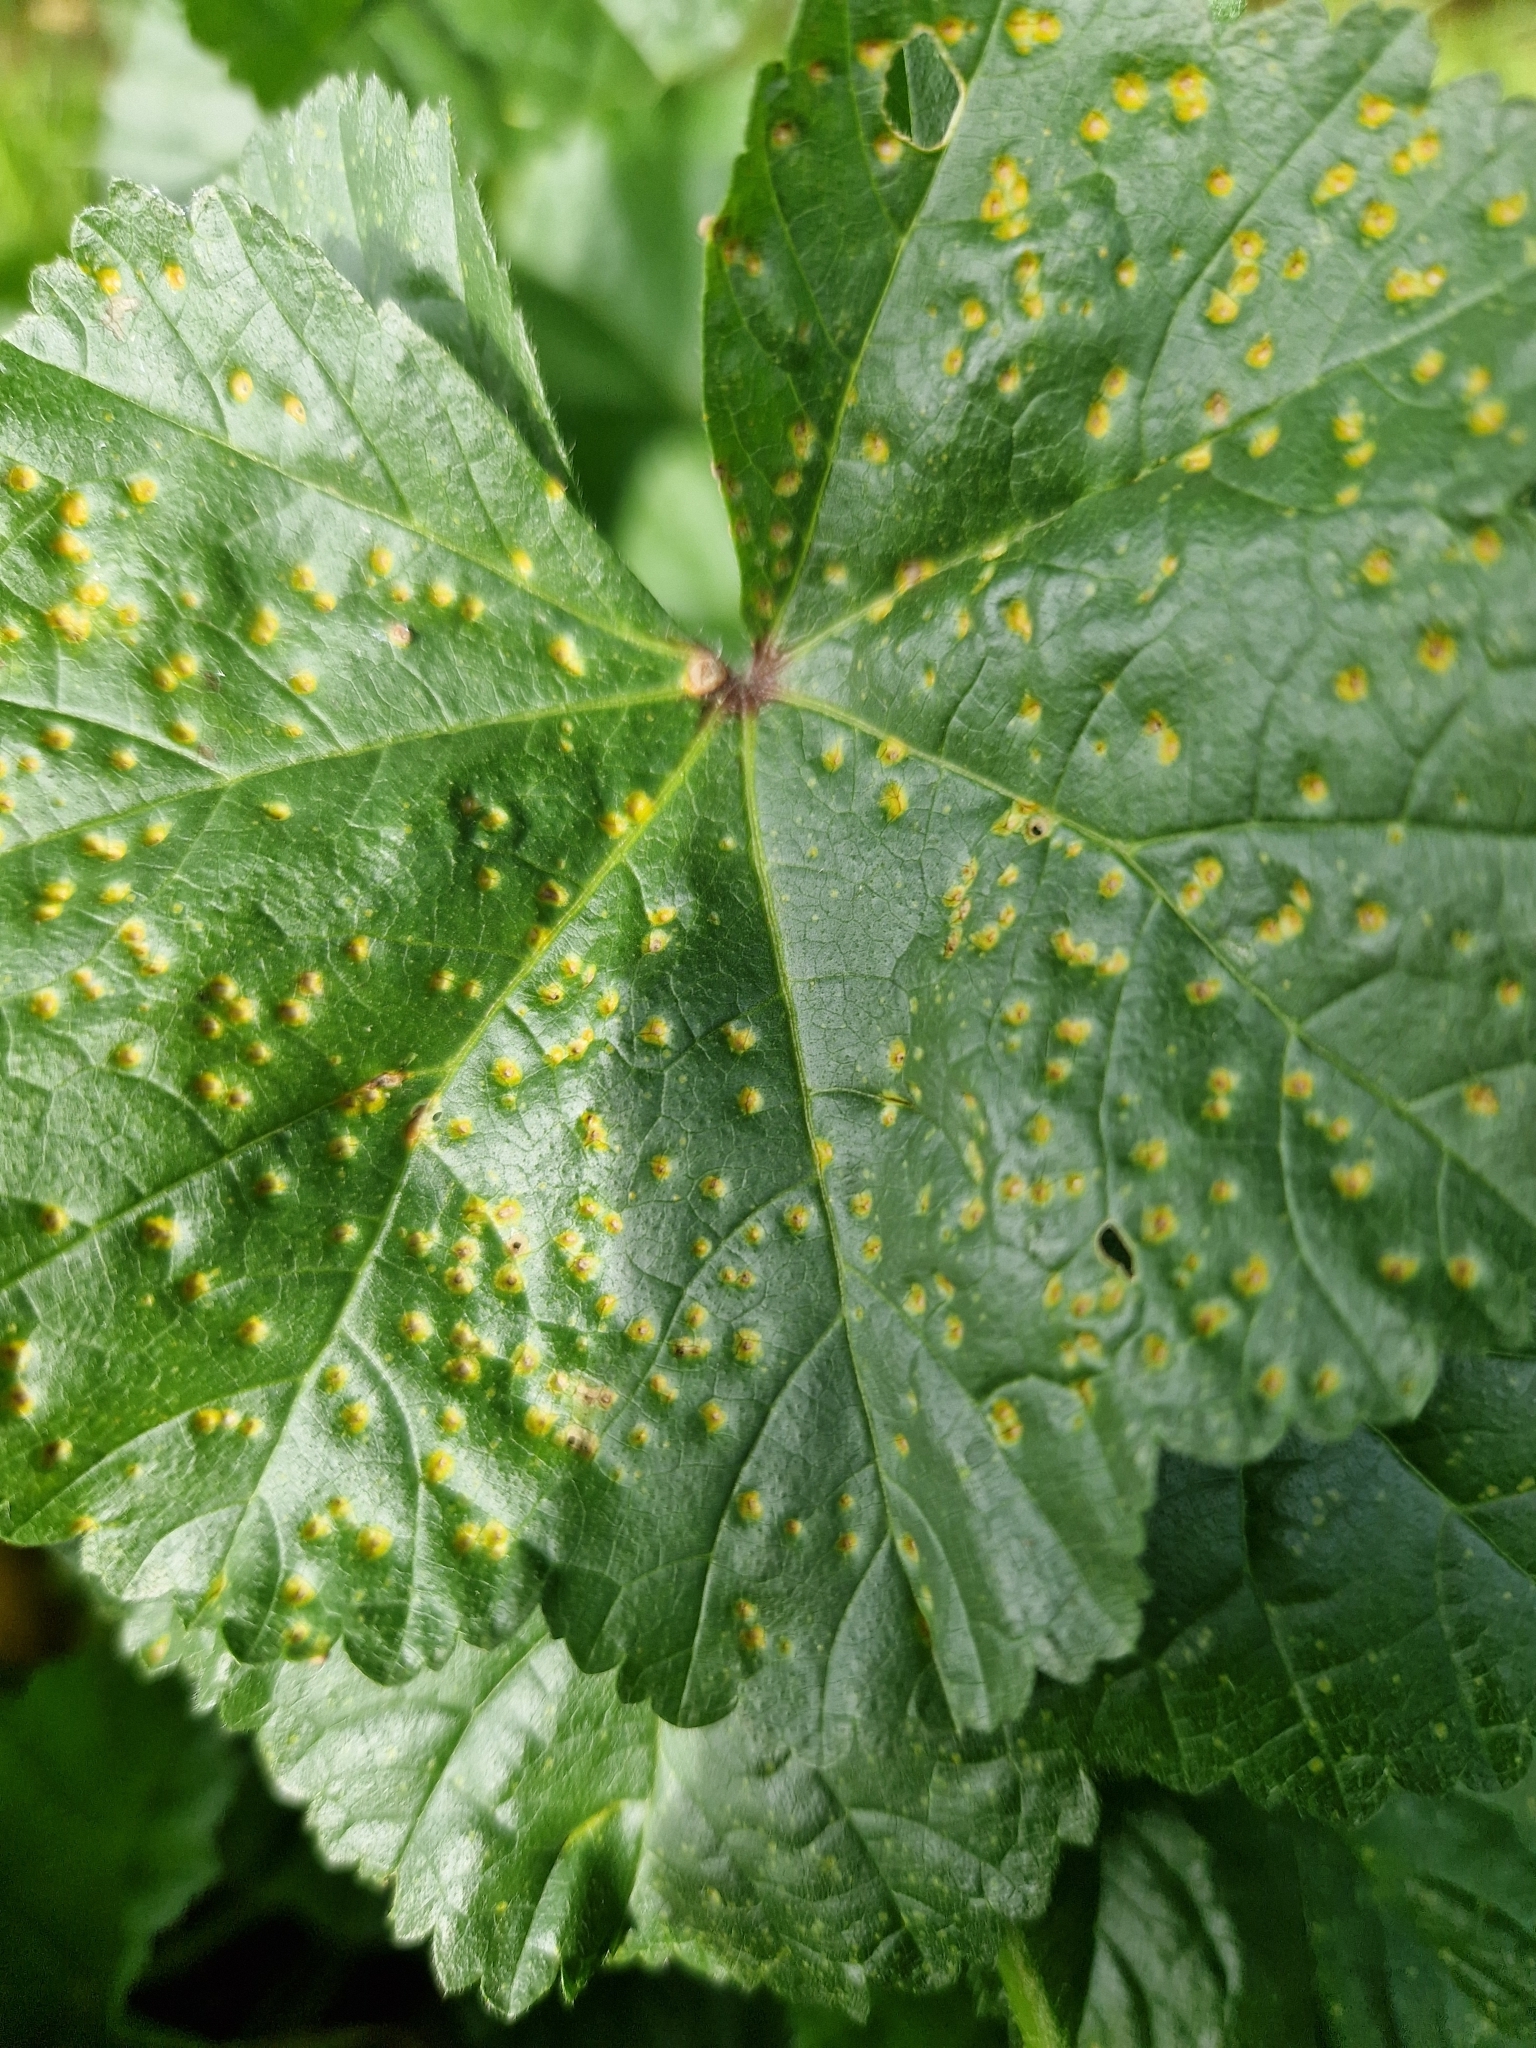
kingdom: Fungi
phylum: Basidiomycota
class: Pucciniomycetes
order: Pucciniales
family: Pucciniaceae
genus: Puccinia
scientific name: Puccinia malvacearum
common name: Hollyhock rust
